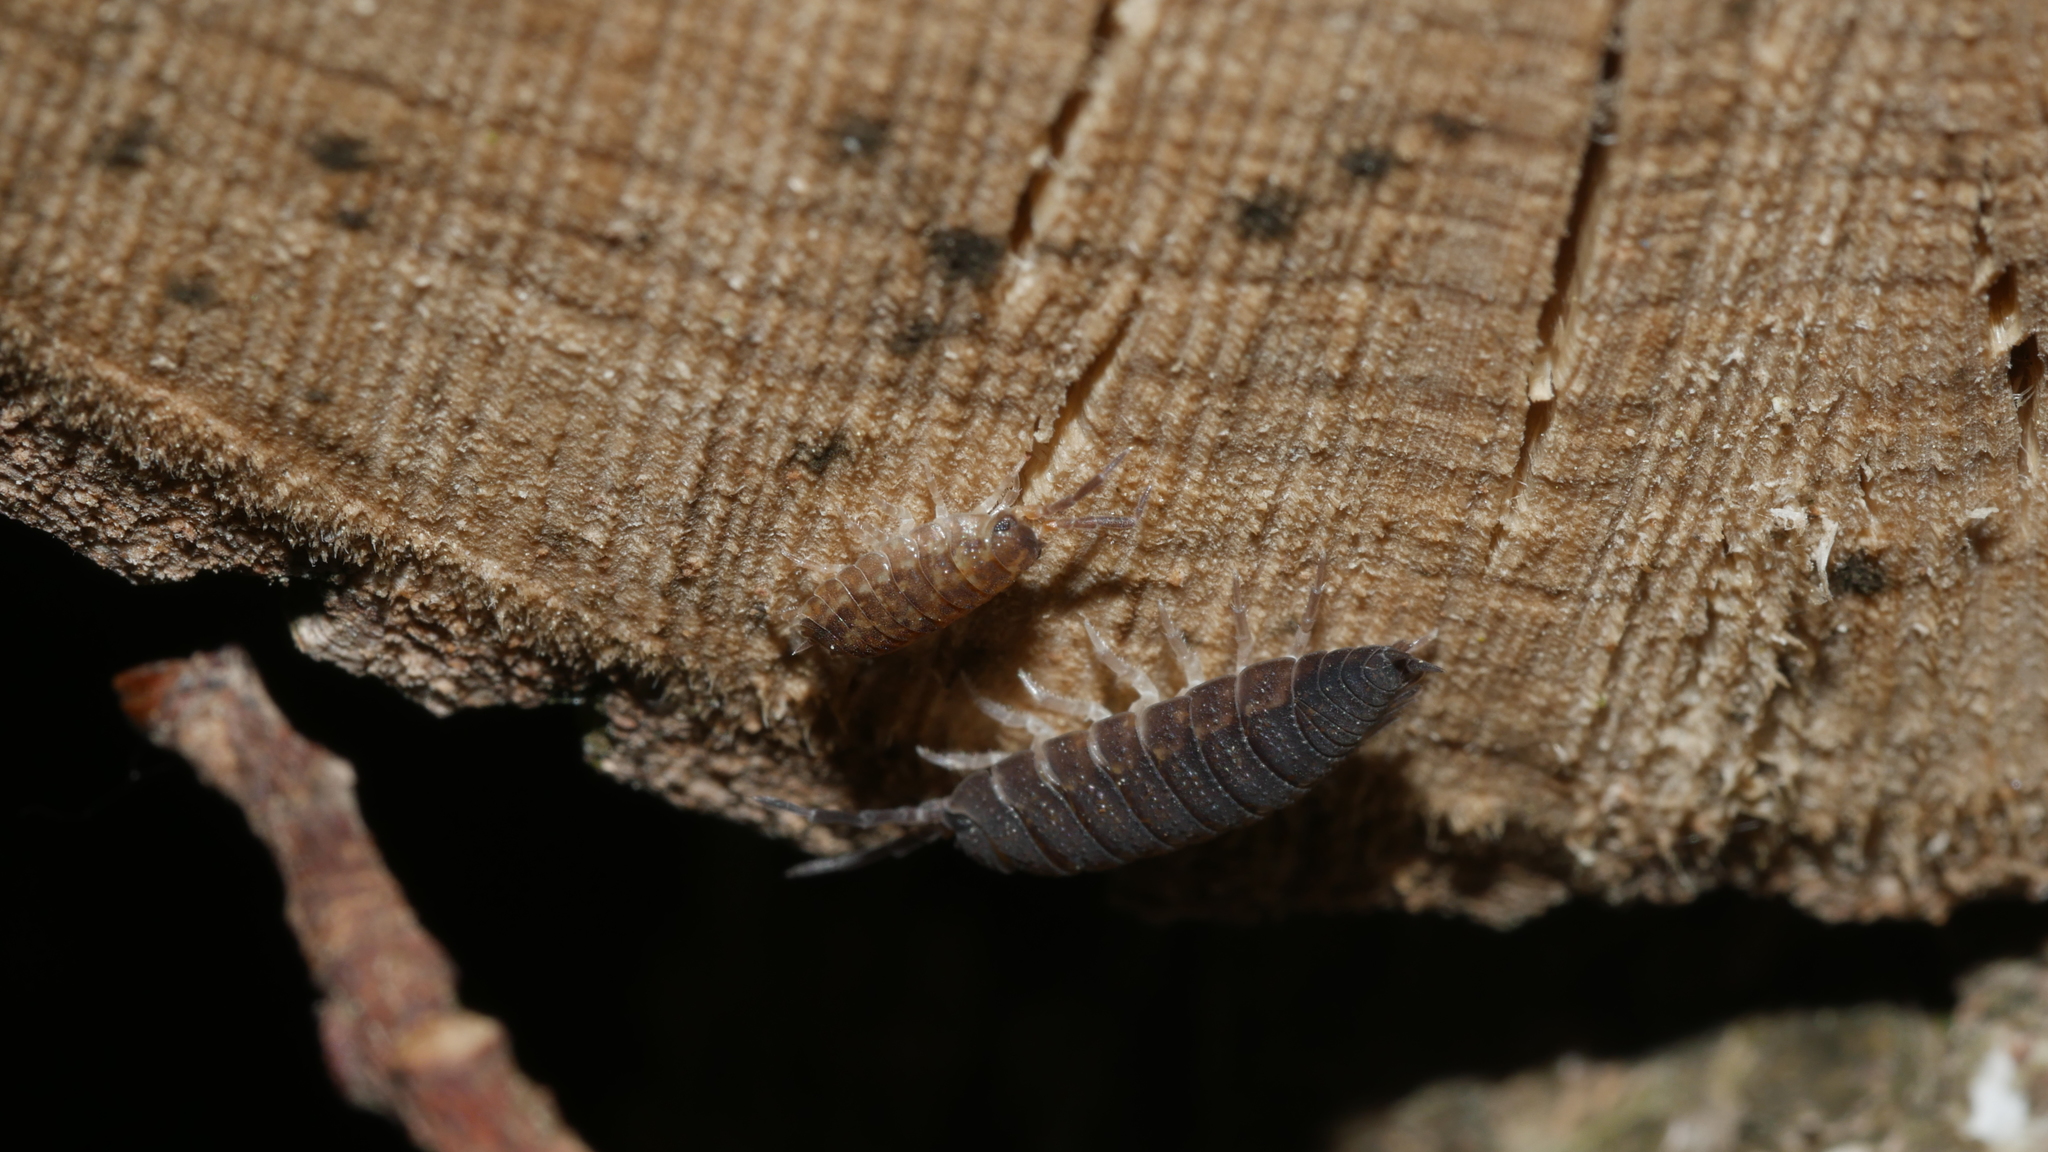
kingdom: Animalia
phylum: Arthropoda
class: Malacostraca
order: Isopoda
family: Porcellionidae
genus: Porcellio
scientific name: Porcellio scaber
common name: Common rough woodlouse
